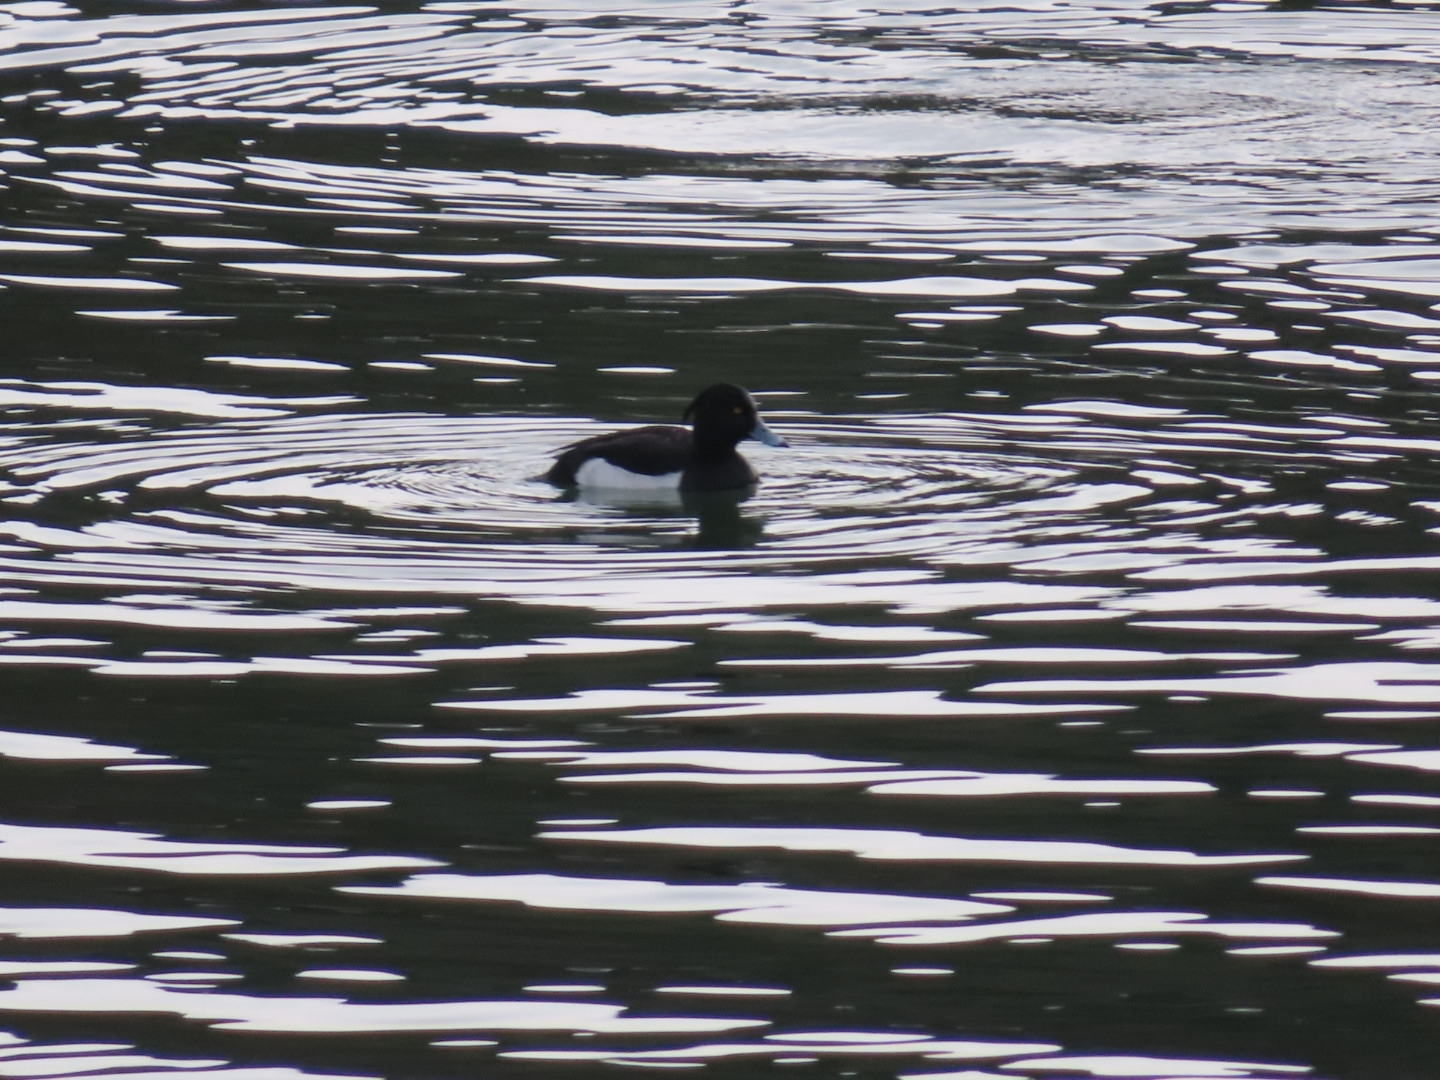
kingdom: Animalia
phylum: Chordata
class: Aves
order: Anseriformes
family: Anatidae
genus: Aythya
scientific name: Aythya fuligula
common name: Tufted duck
